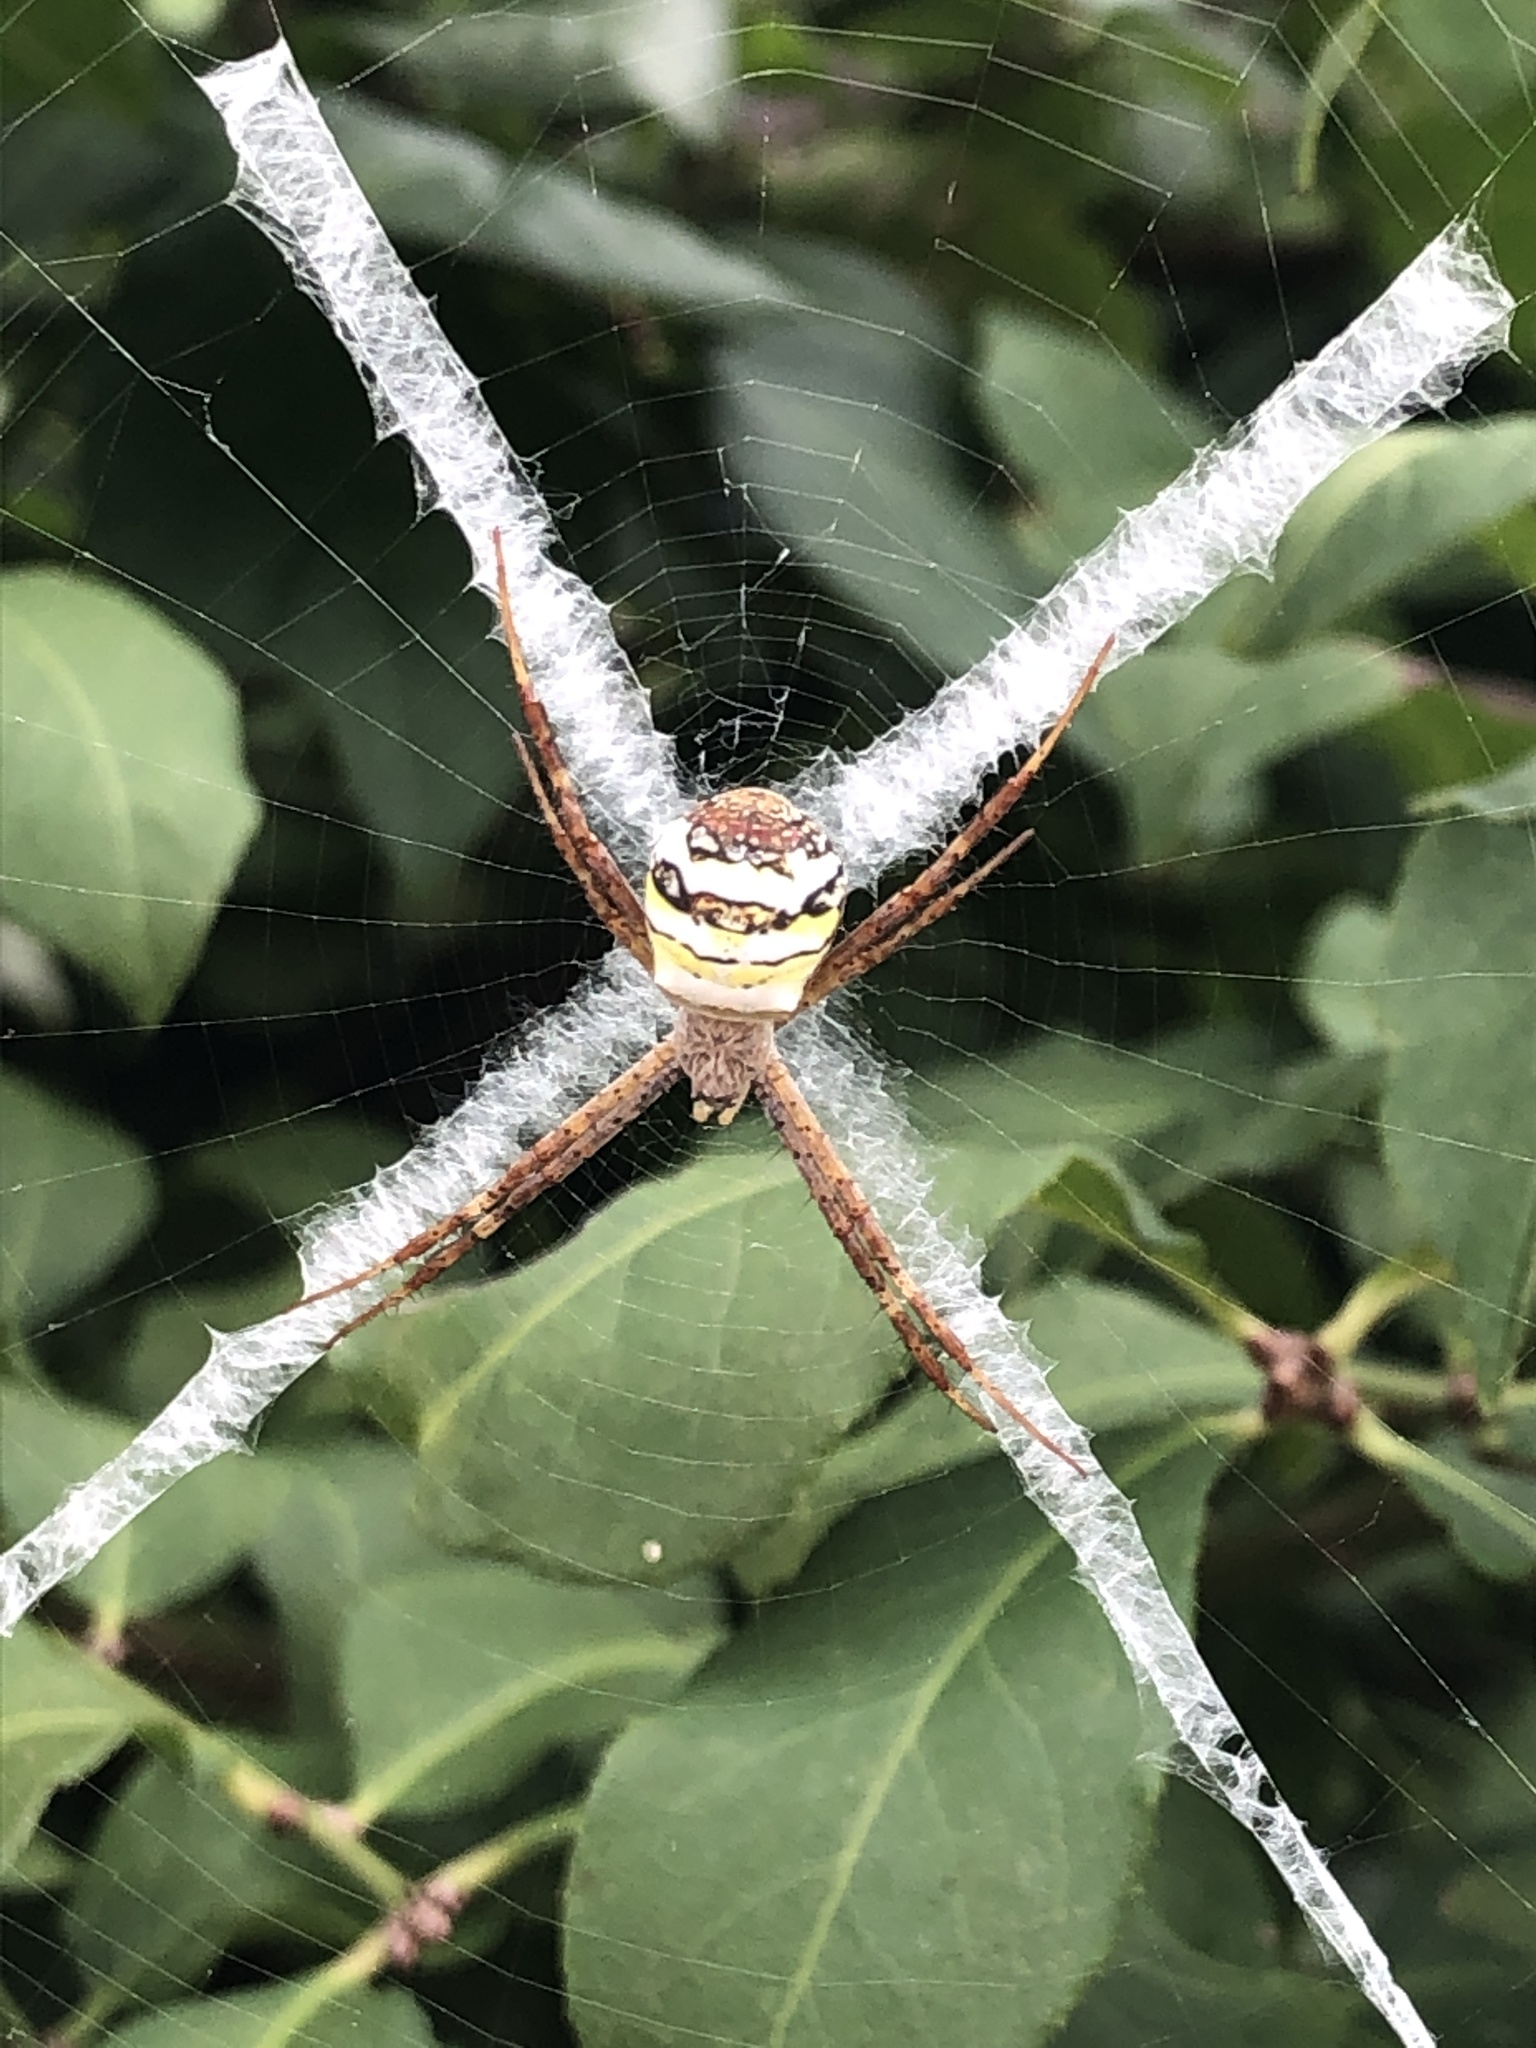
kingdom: Animalia
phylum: Arthropoda
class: Arachnida
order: Araneae
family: Araneidae
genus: Argiope
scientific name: Argiope minuta
